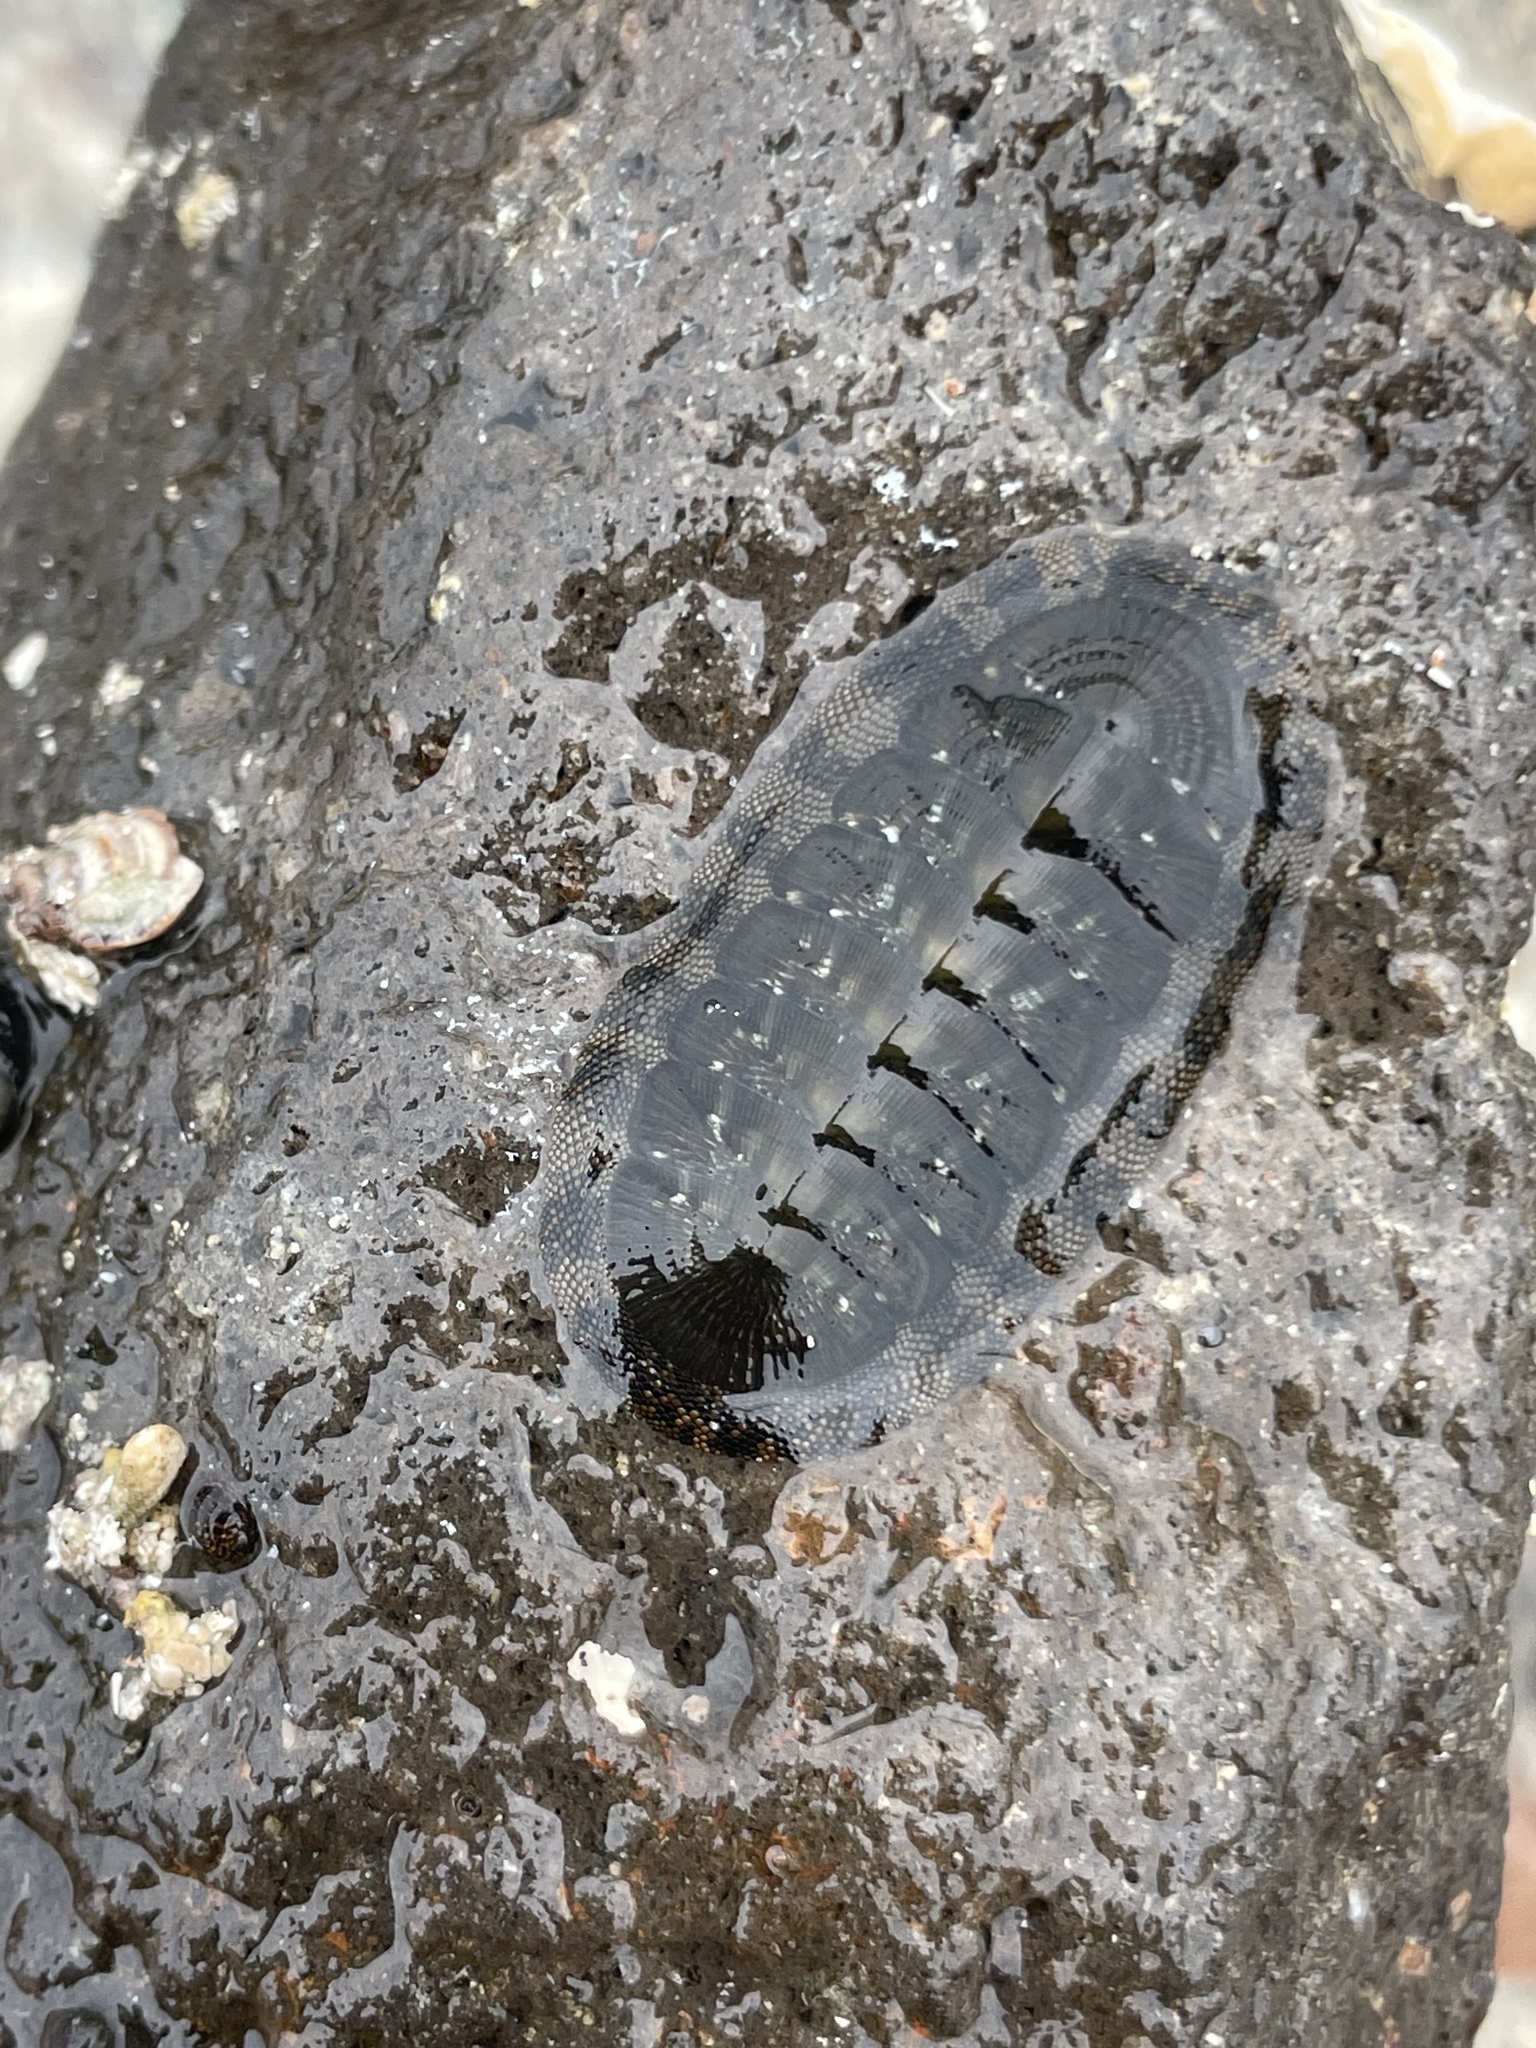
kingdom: Animalia
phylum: Mollusca
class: Polyplacophora
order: Chitonida
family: Chitonidae
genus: Chiton
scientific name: Chiton virgulatus
